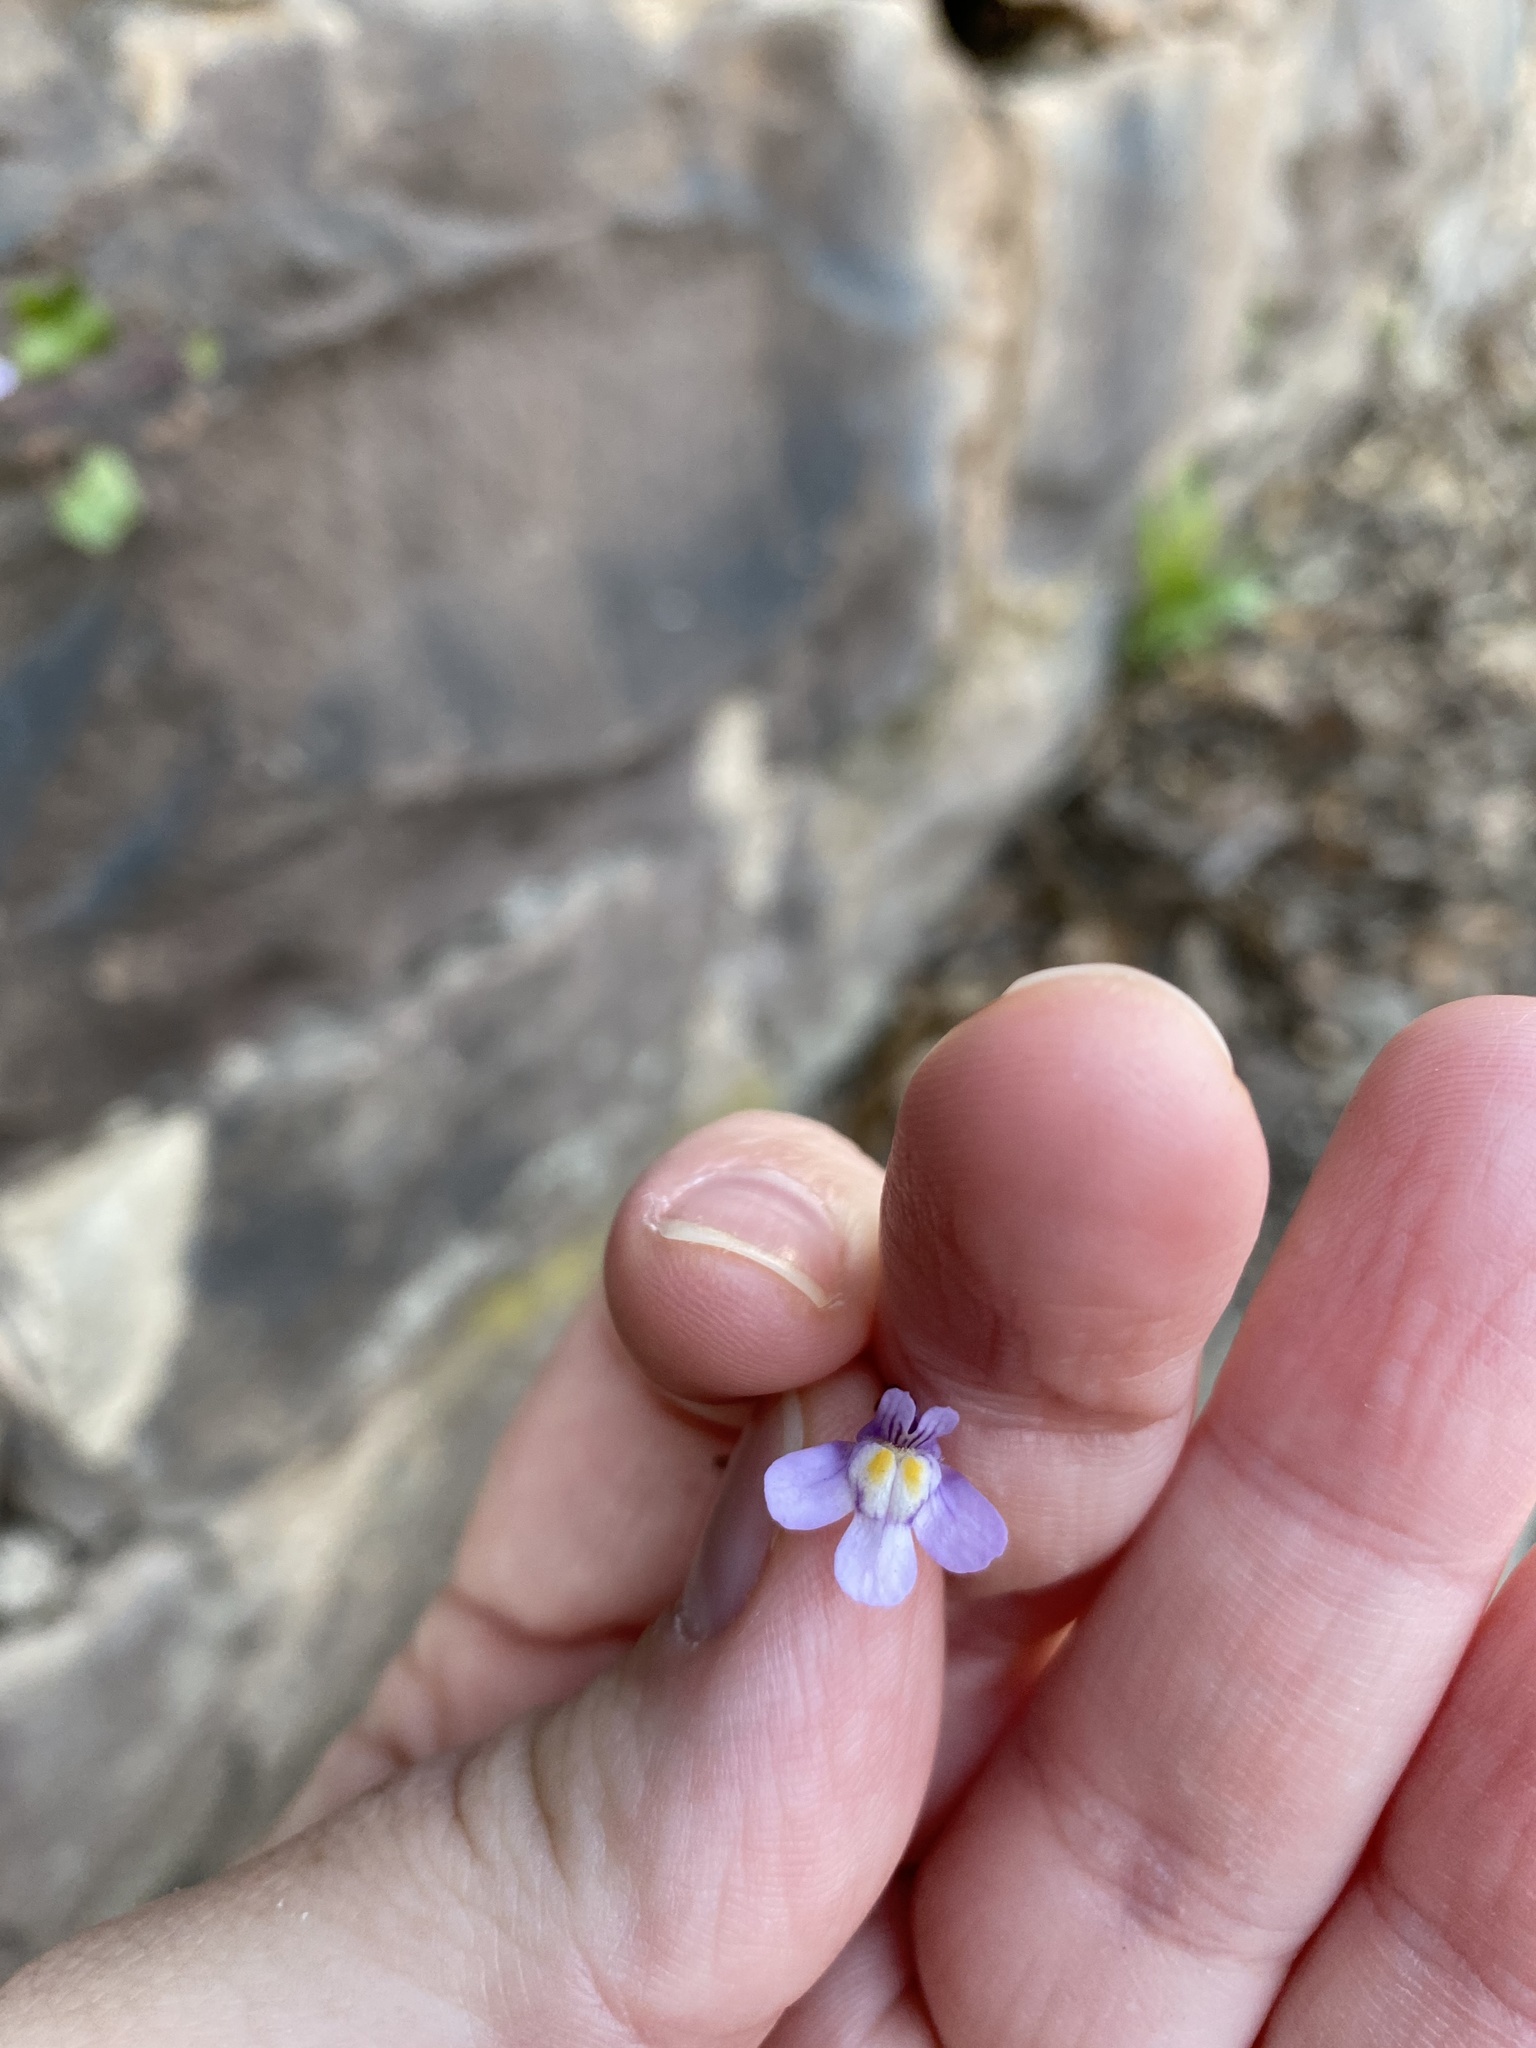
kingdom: Plantae
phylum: Tracheophyta
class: Magnoliopsida
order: Lamiales
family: Plantaginaceae
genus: Cymbalaria
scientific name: Cymbalaria muralis
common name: Ivy-leaved toadflax
